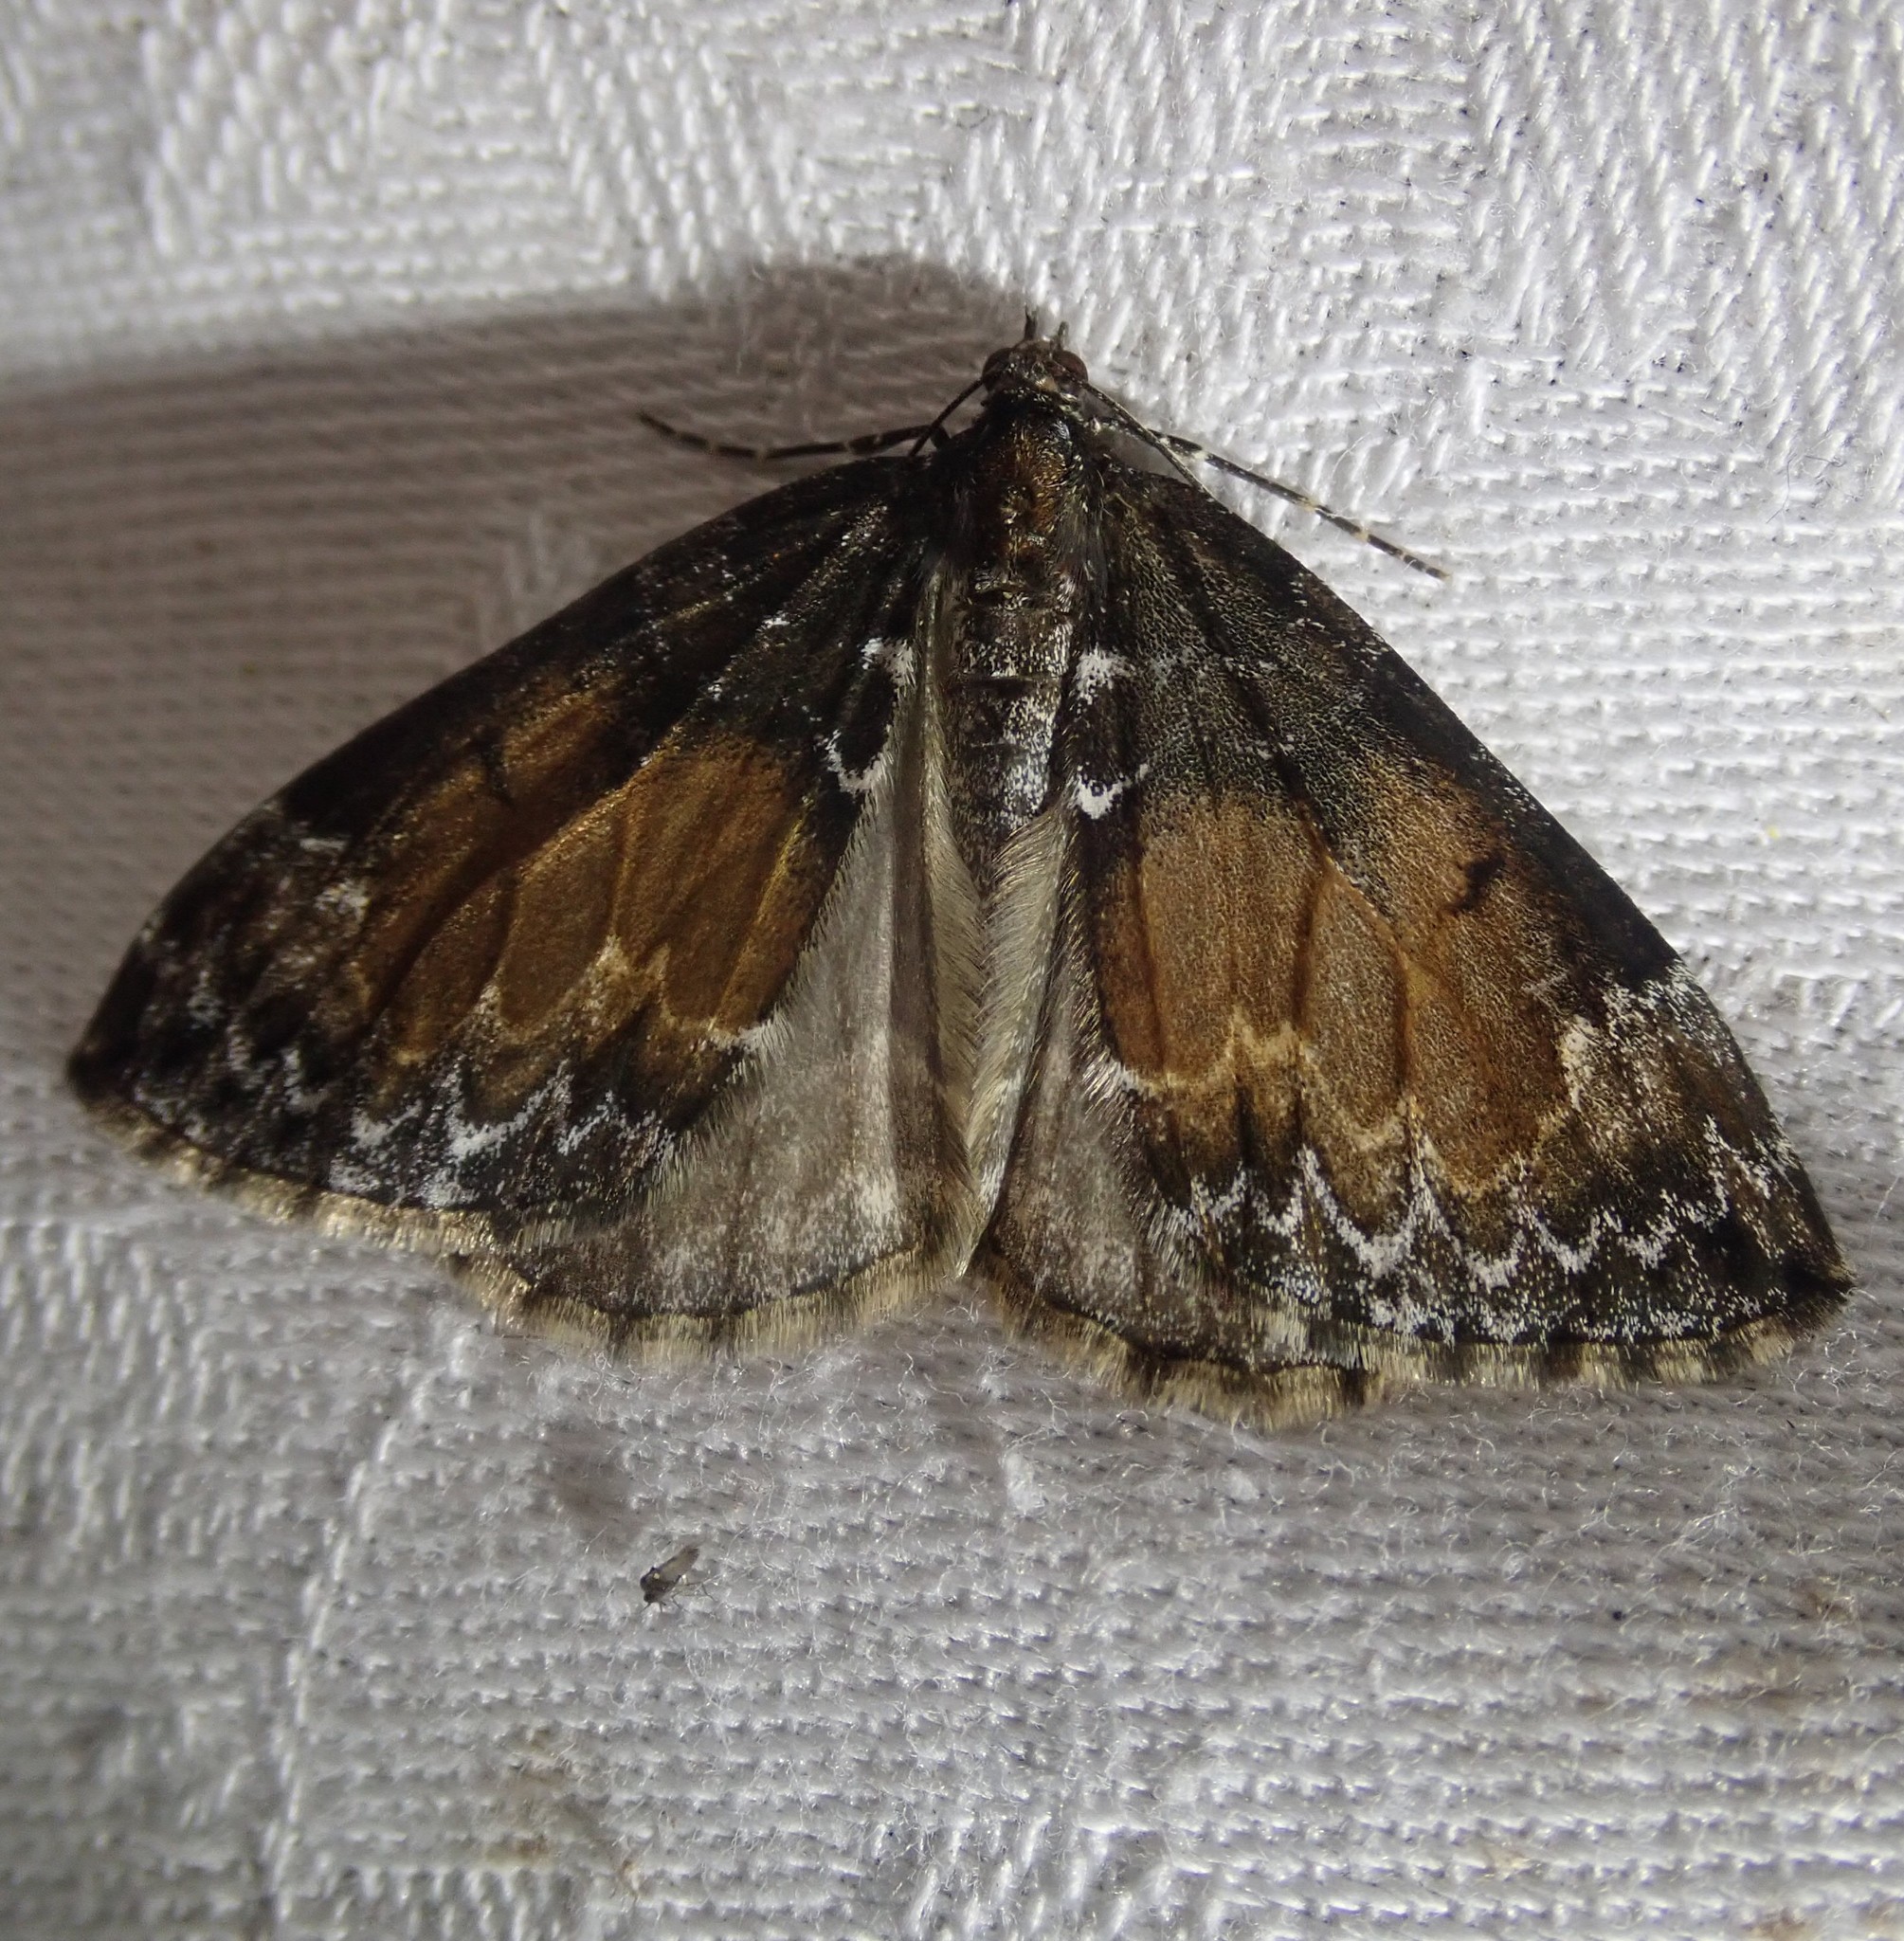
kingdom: Animalia
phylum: Arthropoda
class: Insecta
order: Lepidoptera
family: Geometridae
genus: Dysstroma
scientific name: Dysstroma truncata
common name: Common marbled carpet
